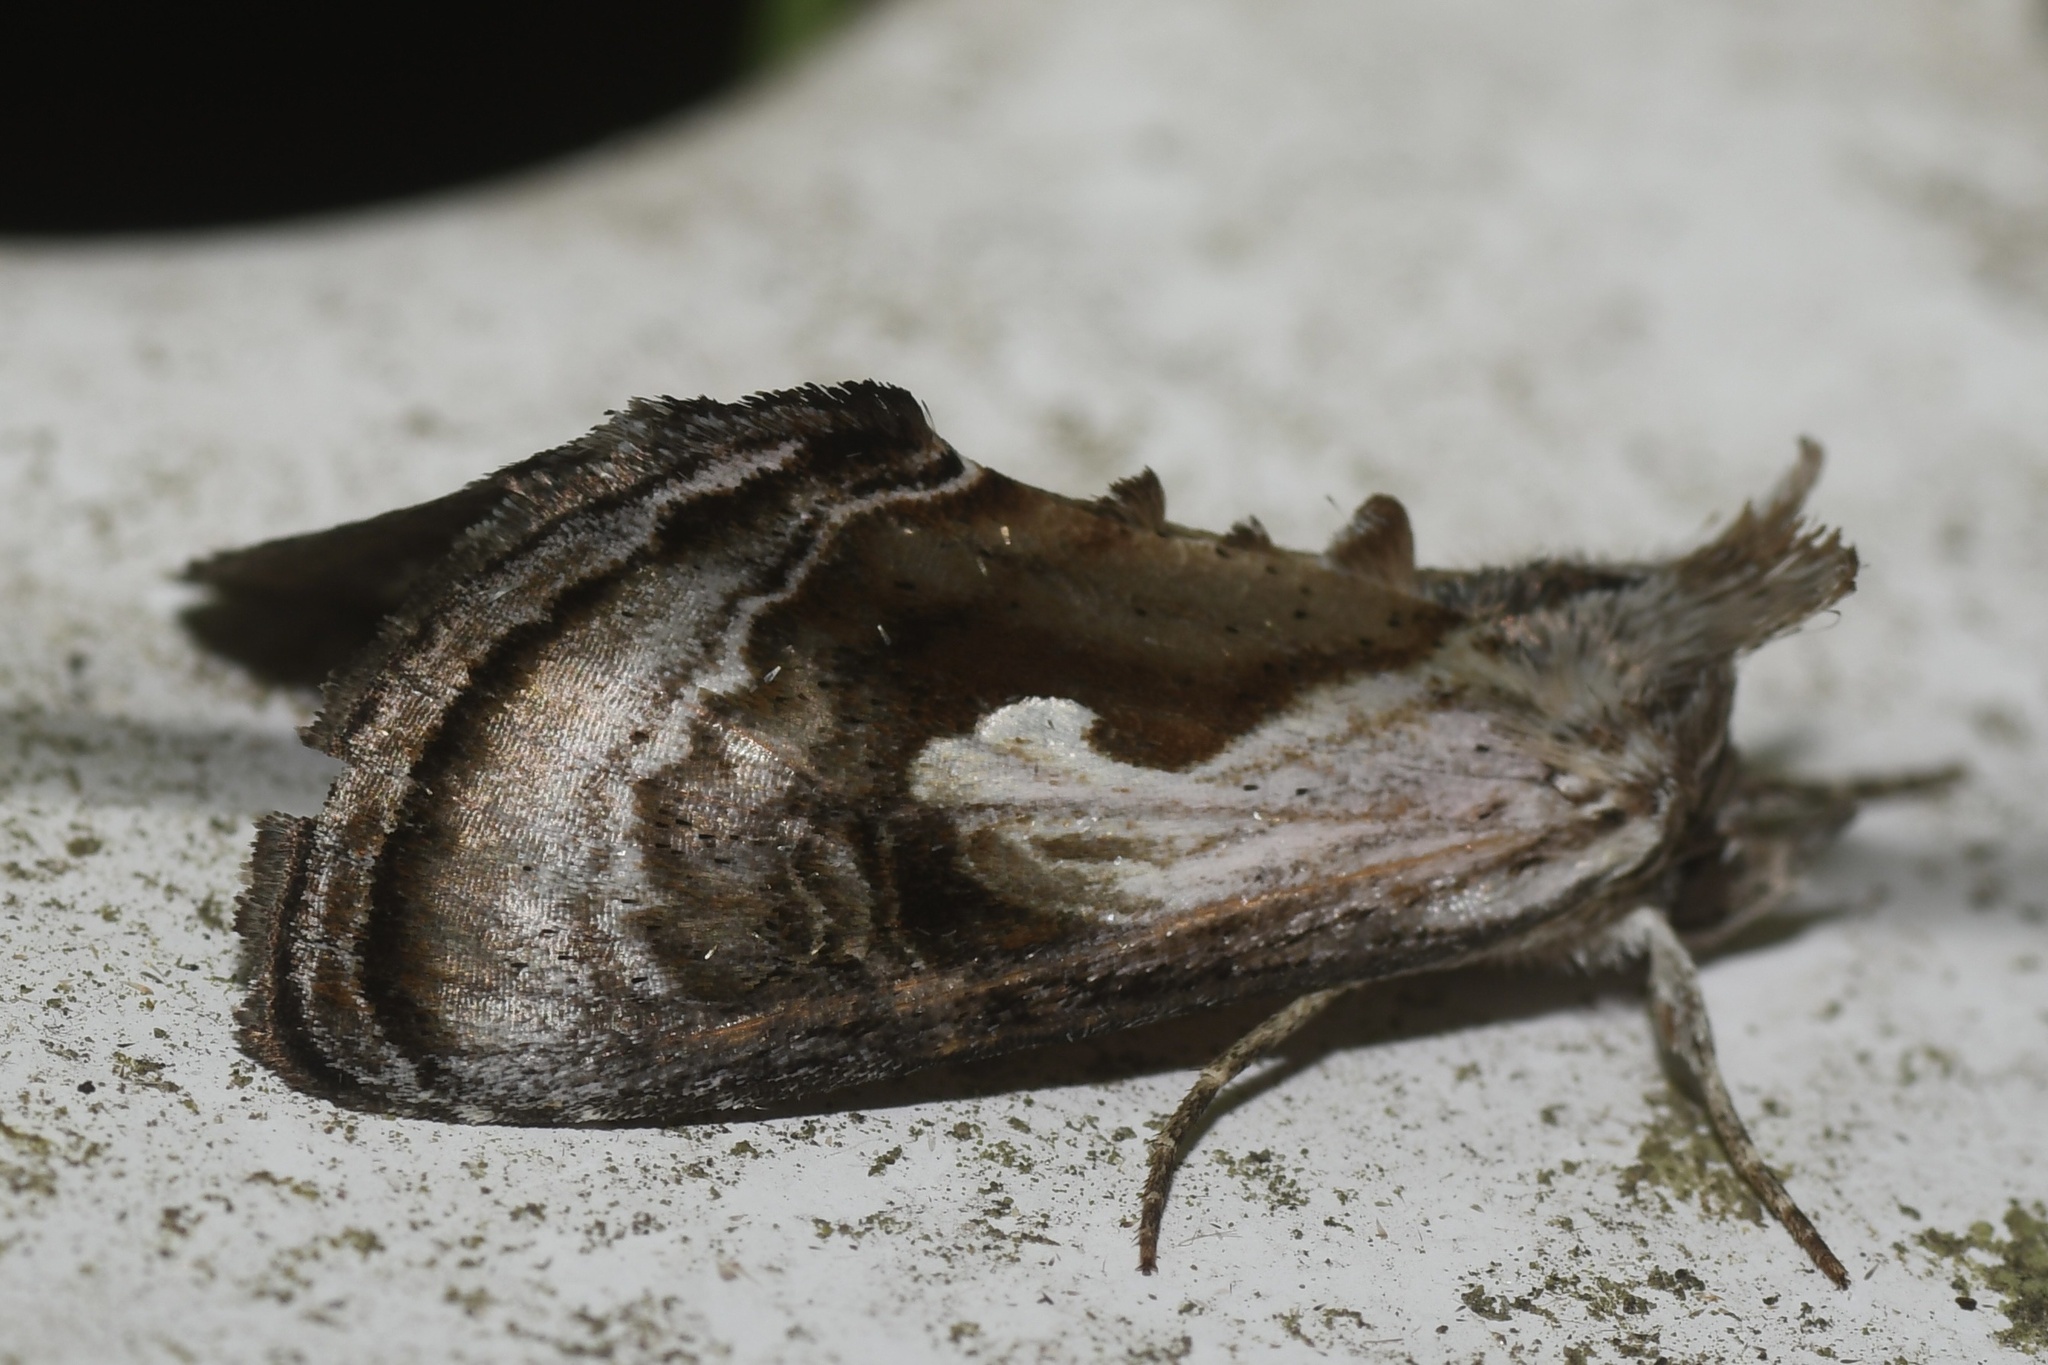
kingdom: Animalia
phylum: Arthropoda
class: Insecta
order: Lepidoptera
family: Noctuidae
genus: Chrysanympha
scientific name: Chrysanympha formosa
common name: Formosa looper moth
